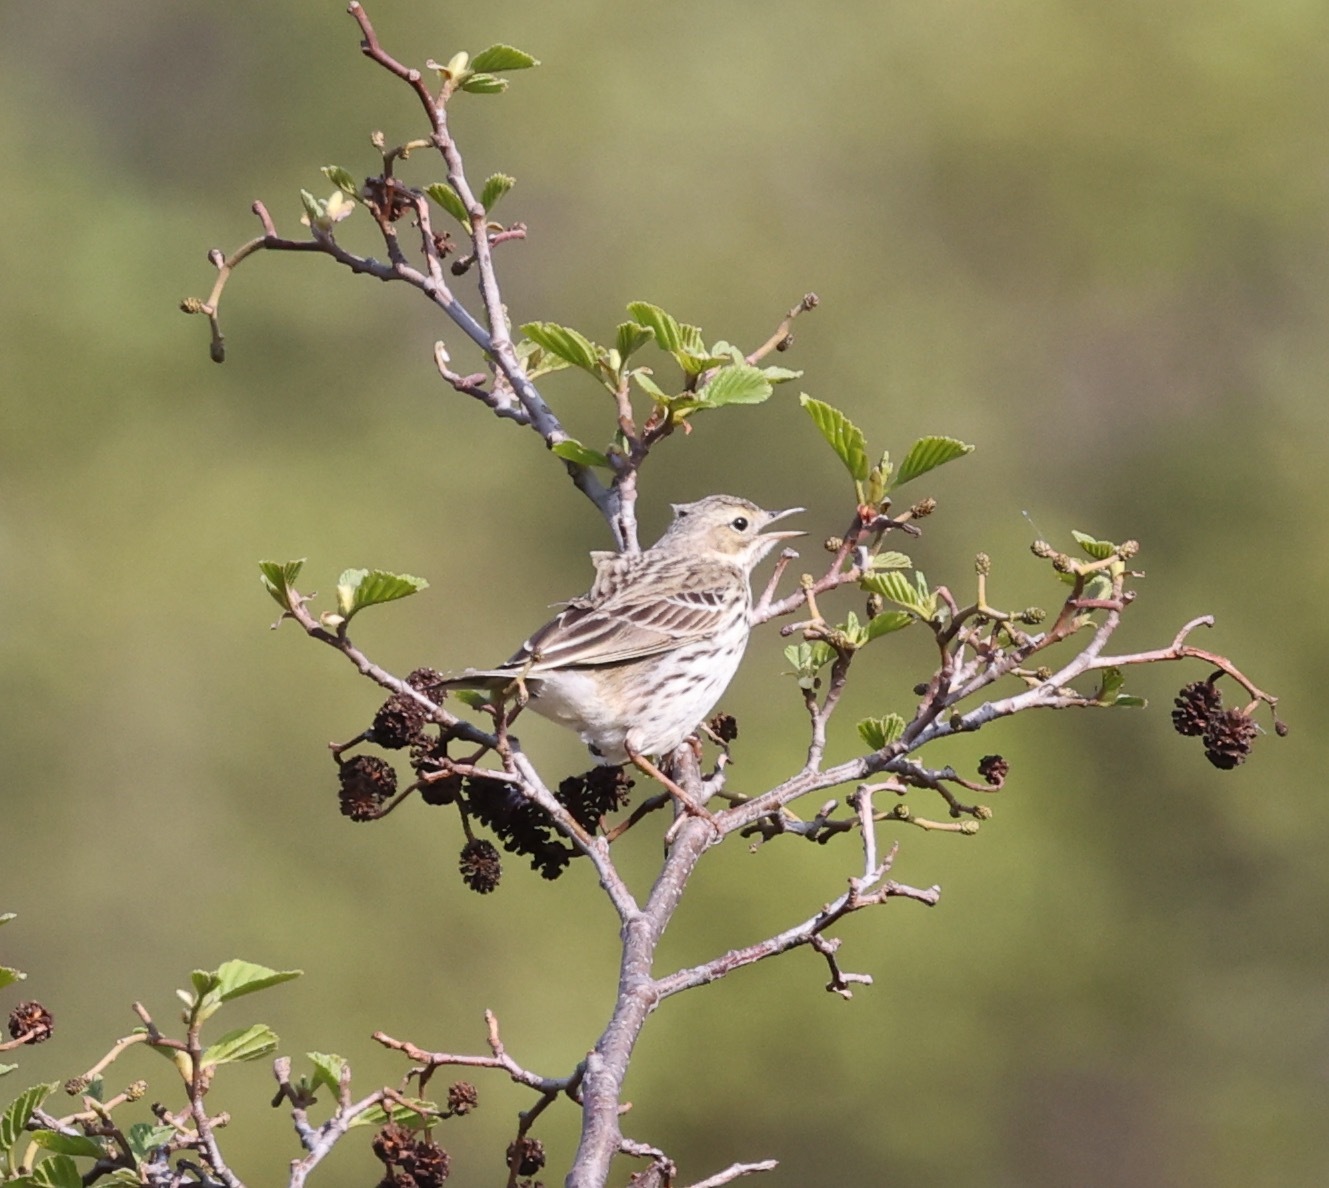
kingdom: Animalia
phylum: Chordata
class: Aves
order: Passeriformes
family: Motacillidae
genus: Anthus
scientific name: Anthus pratensis
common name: Meadow pipit
